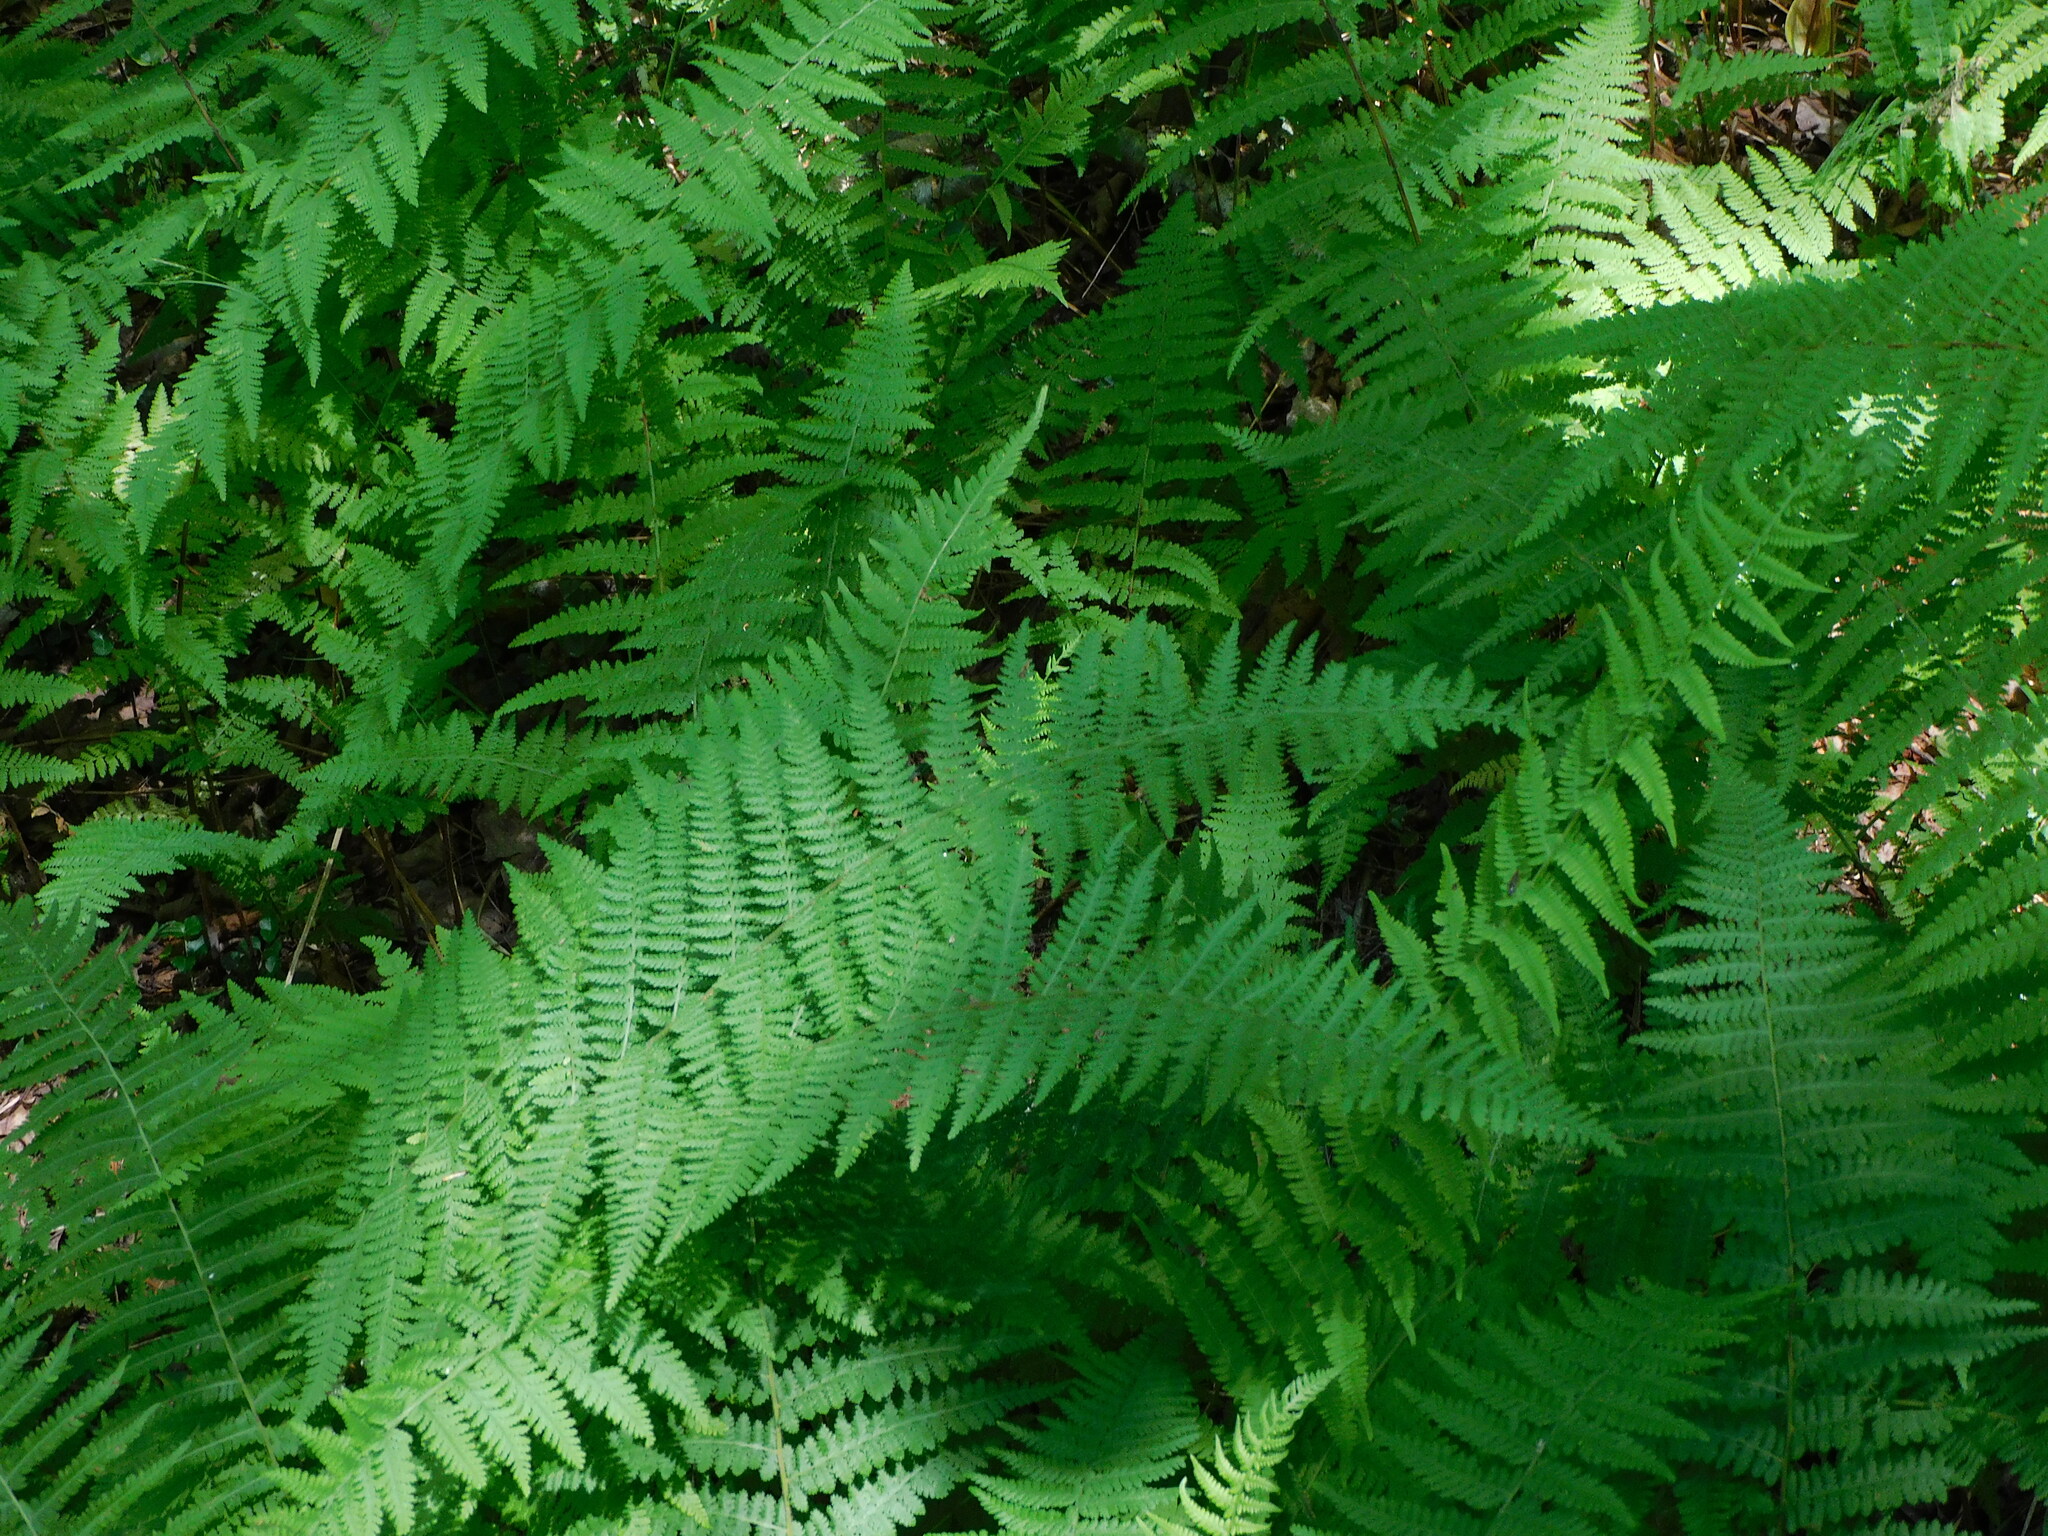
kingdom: Plantae
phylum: Tracheophyta
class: Polypodiopsida
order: Polypodiales
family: Dennstaedtiaceae
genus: Sitobolium
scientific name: Sitobolium punctilobum
